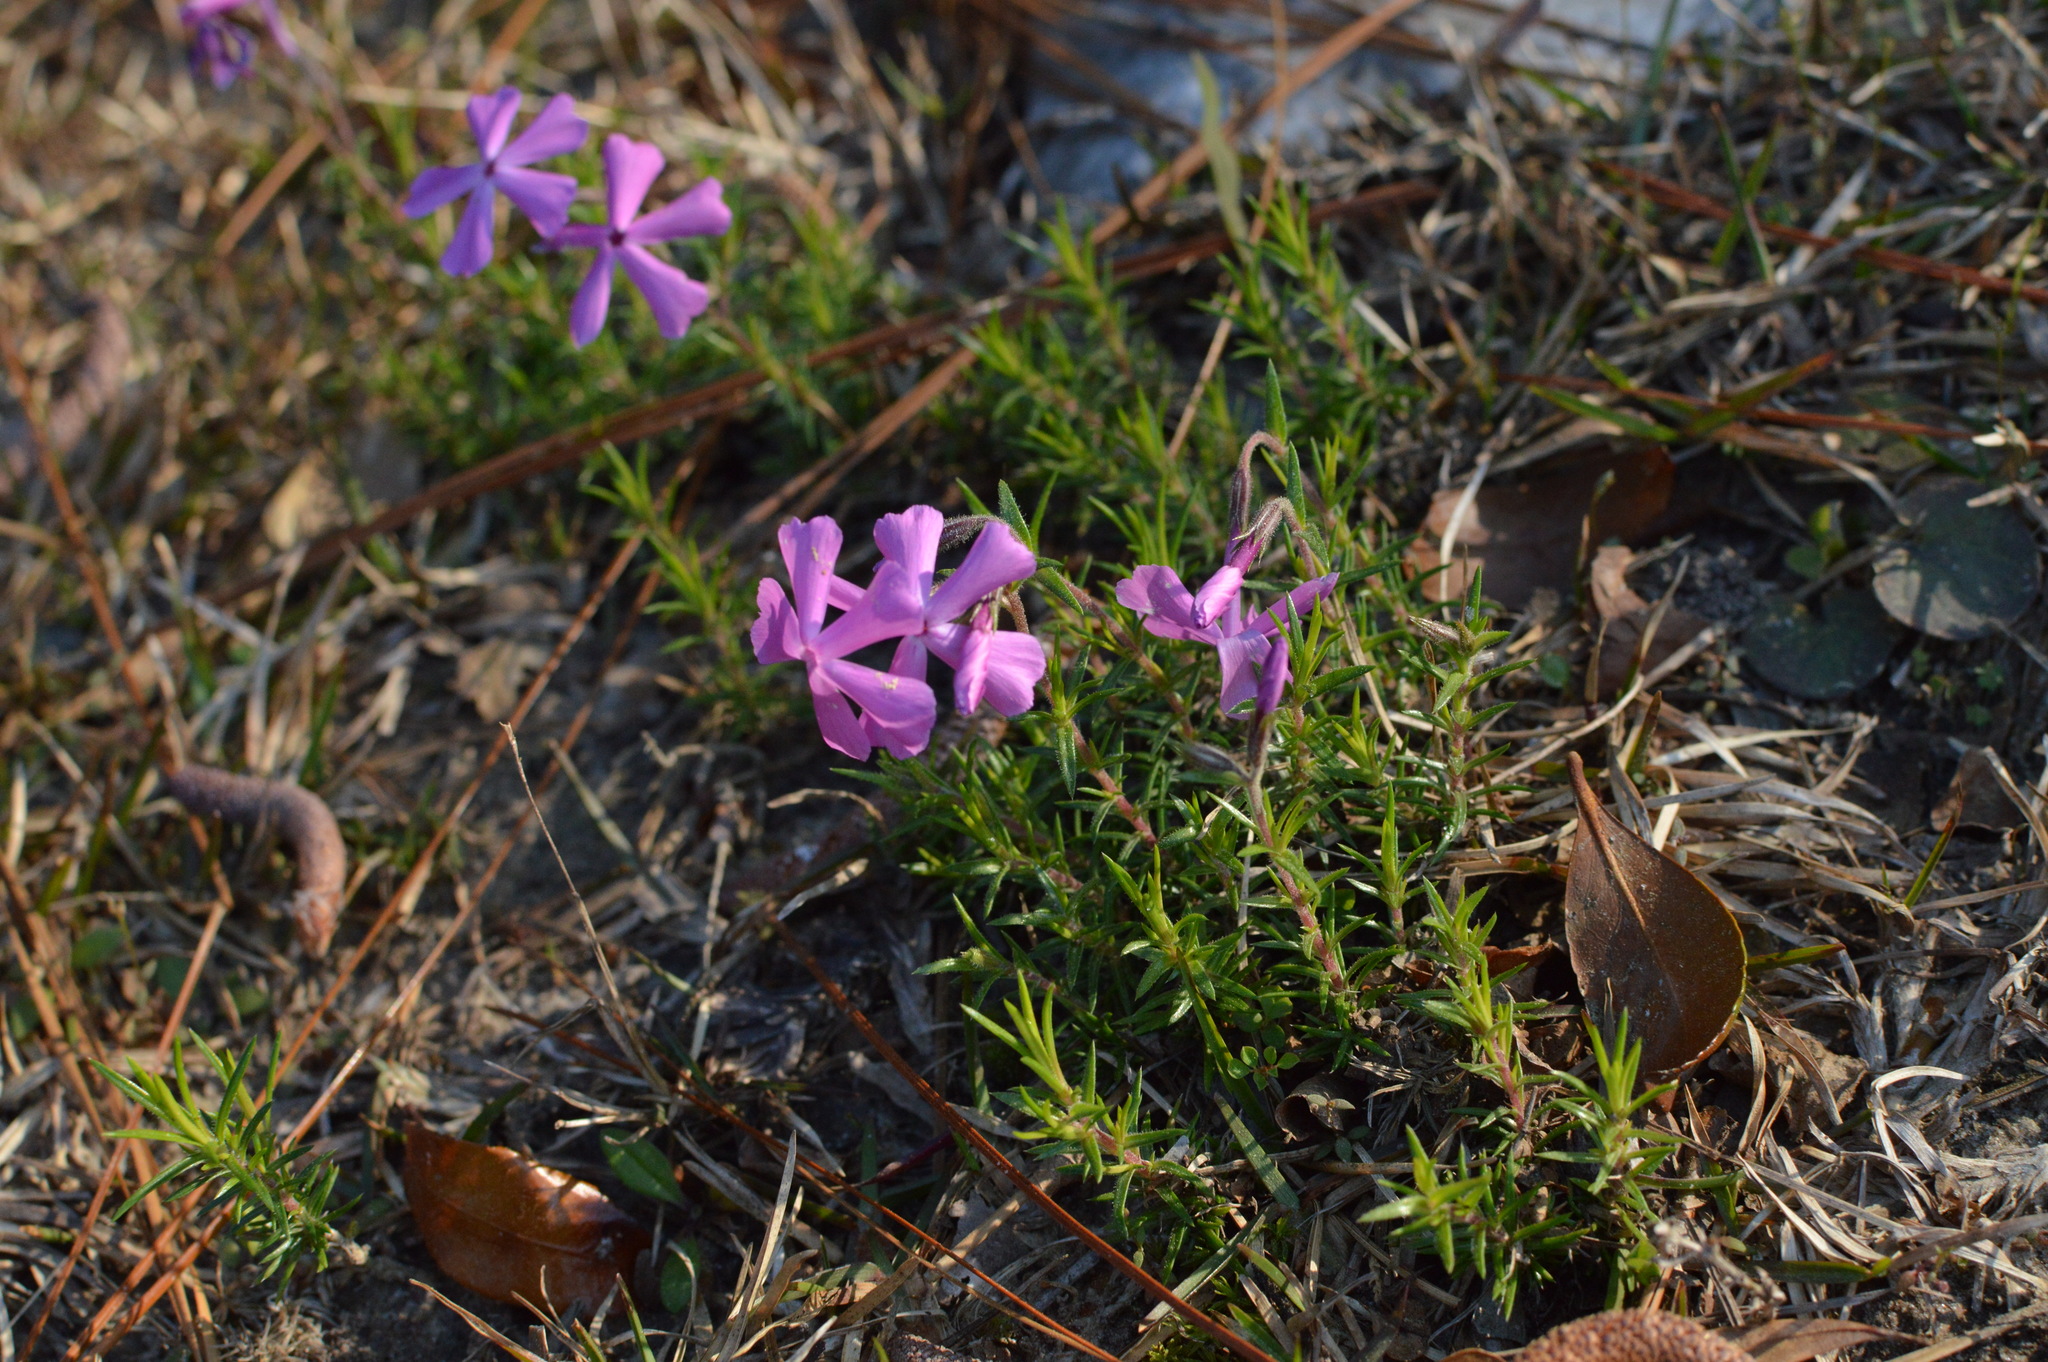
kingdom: Plantae
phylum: Tracheophyta
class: Magnoliopsida
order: Ericales
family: Polemoniaceae
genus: Phlox
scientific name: Phlox subulata
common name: Moss phlox
